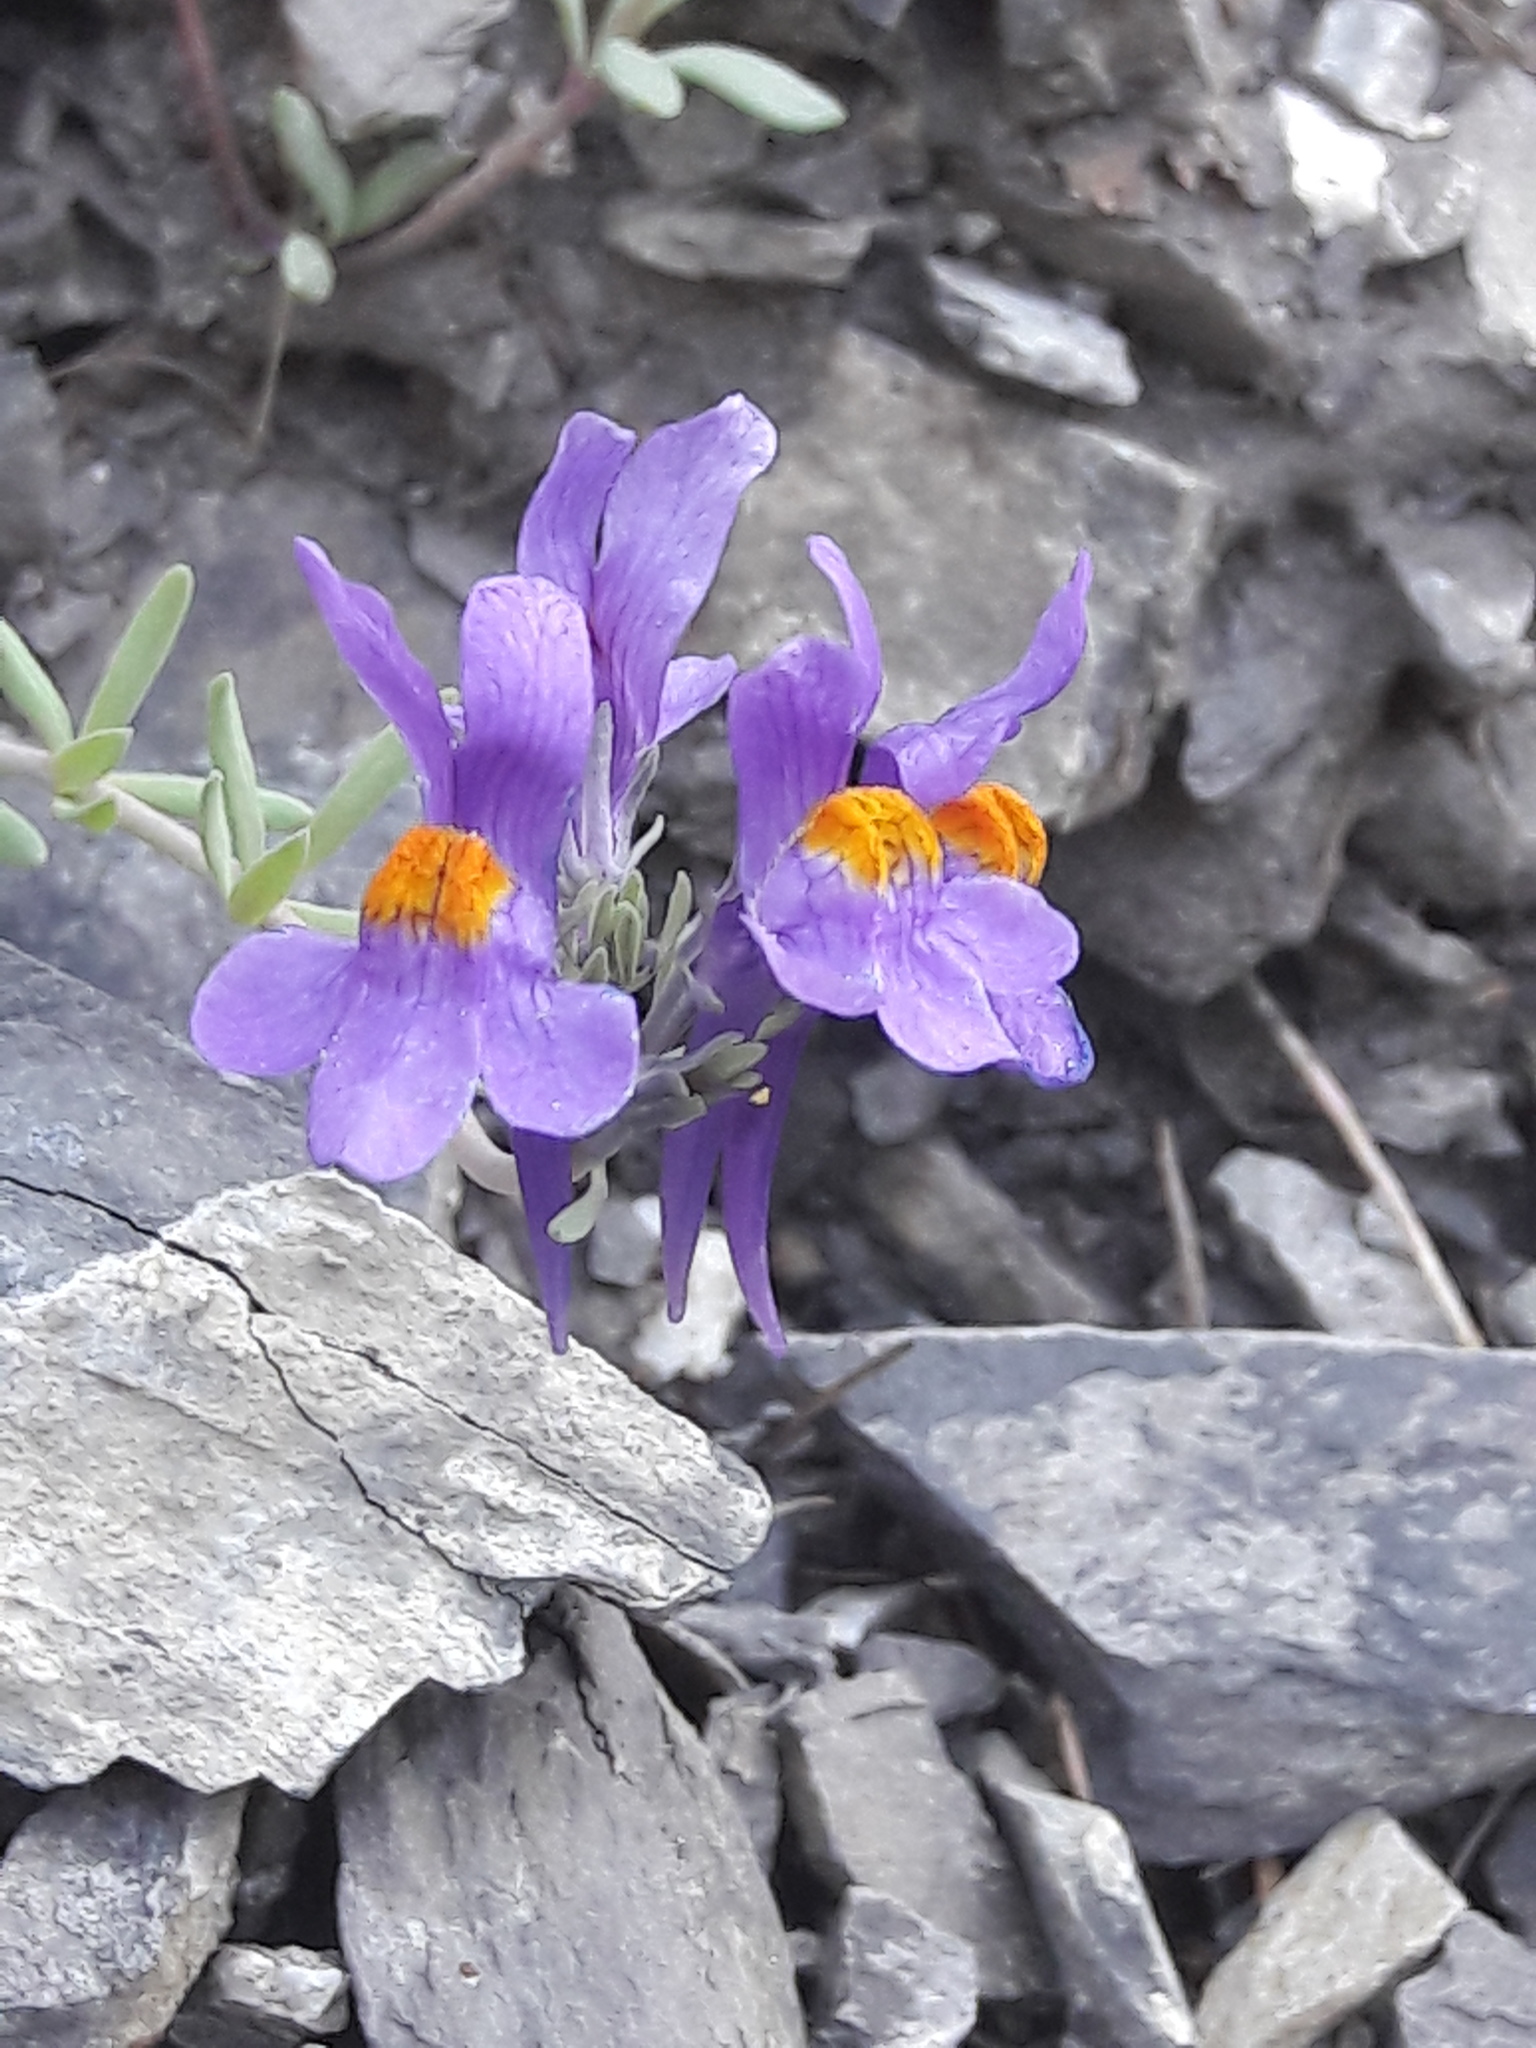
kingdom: Plantae
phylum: Tracheophyta
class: Magnoliopsida
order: Lamiales
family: Plantaginaceae
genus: Linaria
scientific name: Linaria alpina
